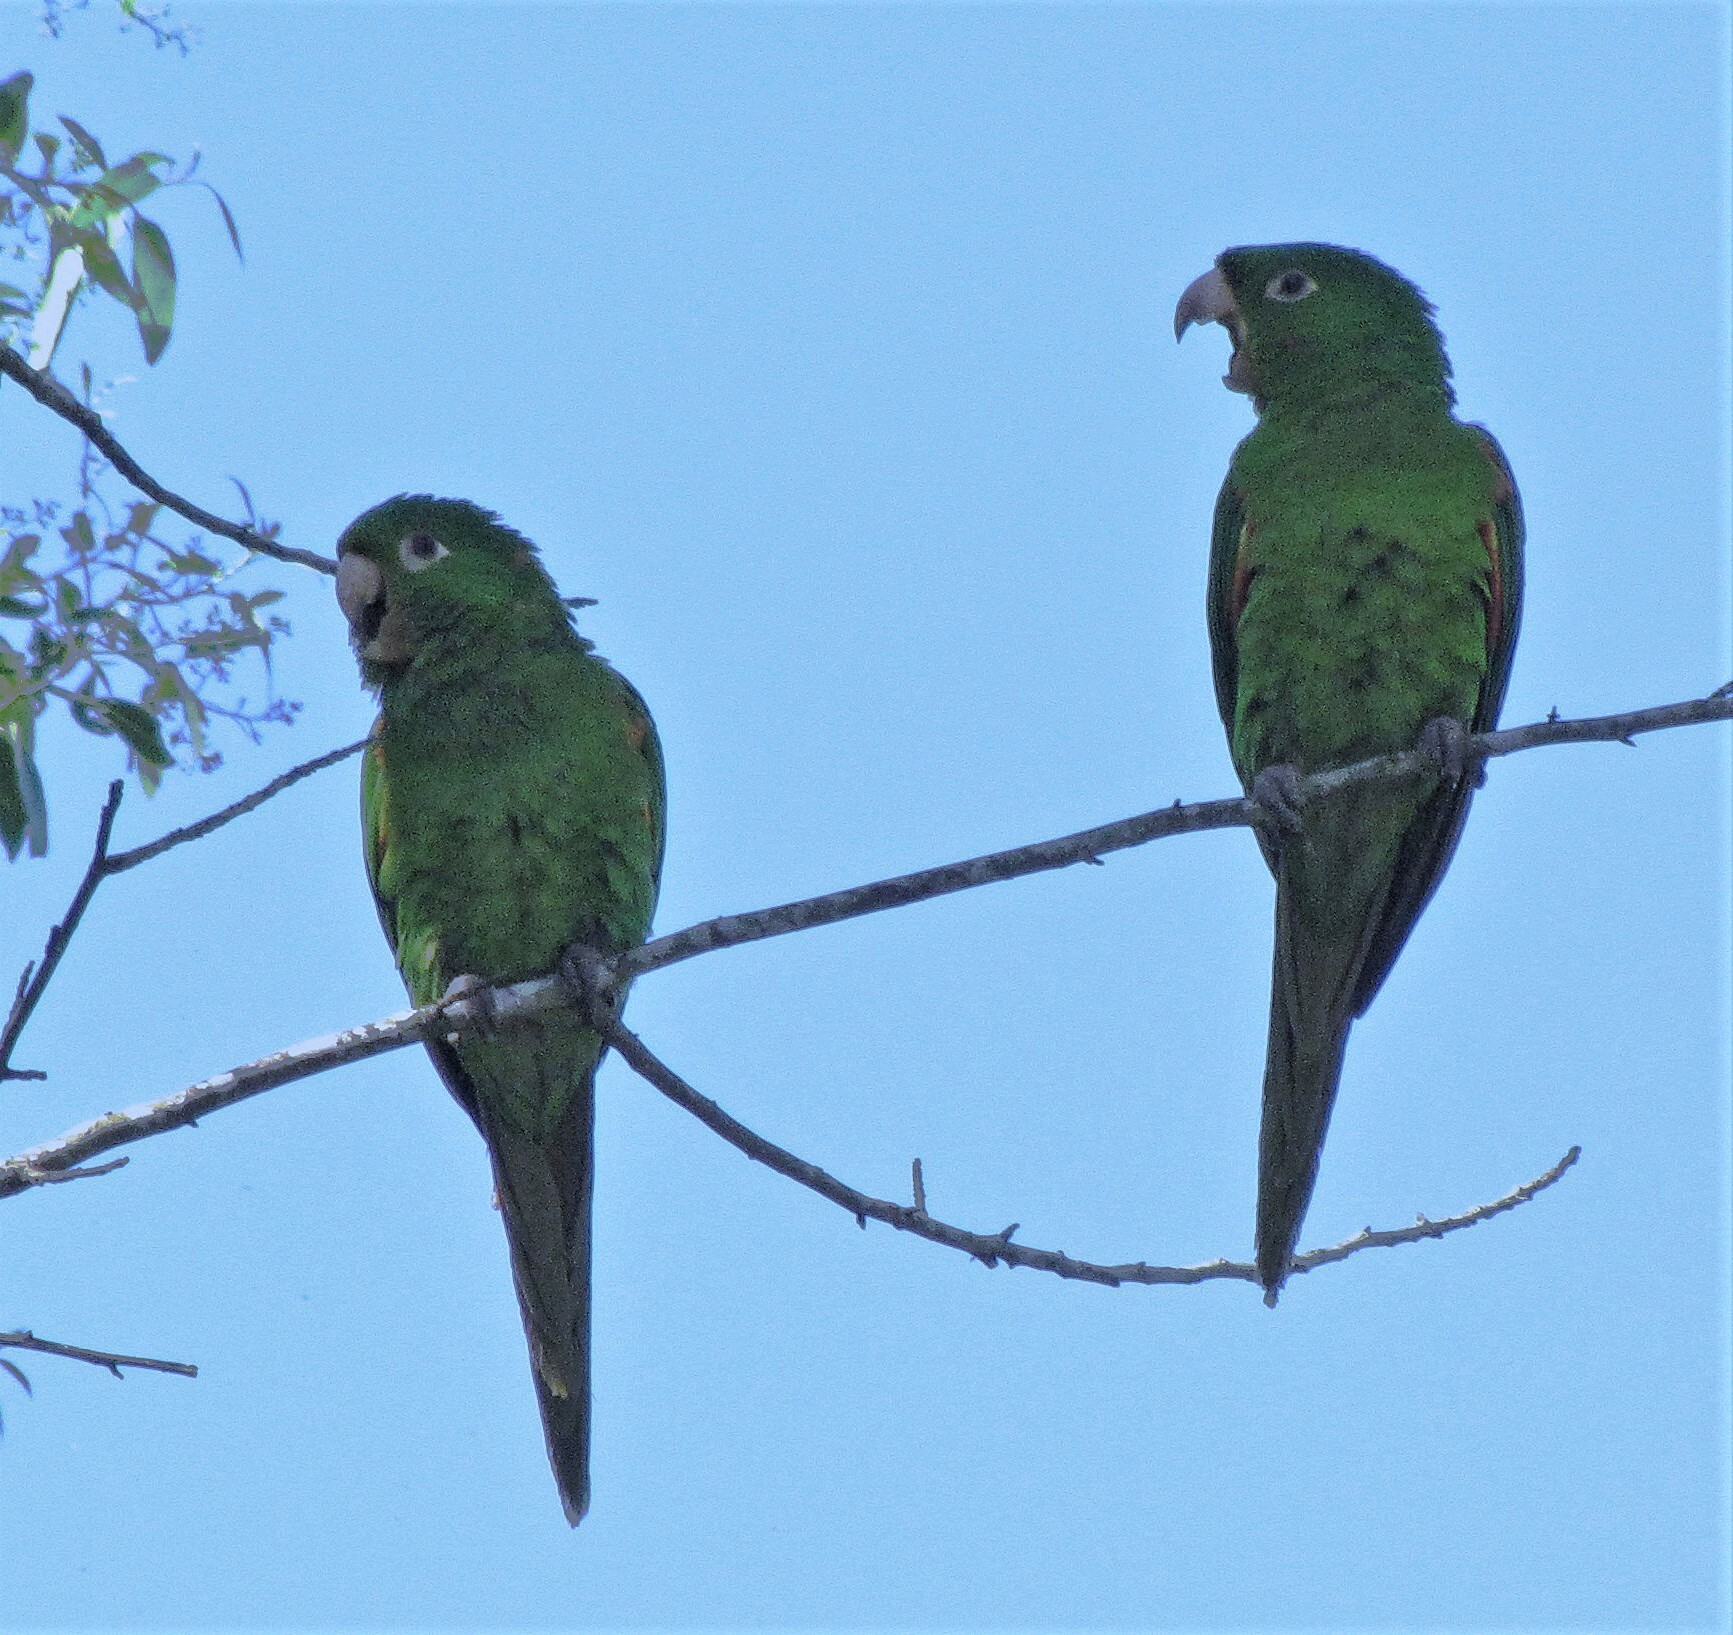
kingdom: Animalia
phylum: Chordata
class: Aves
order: Psittaciformes
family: Psittacidae
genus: Aratinga
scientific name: Aratinga leucophthalma
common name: White-eyed parakeet
